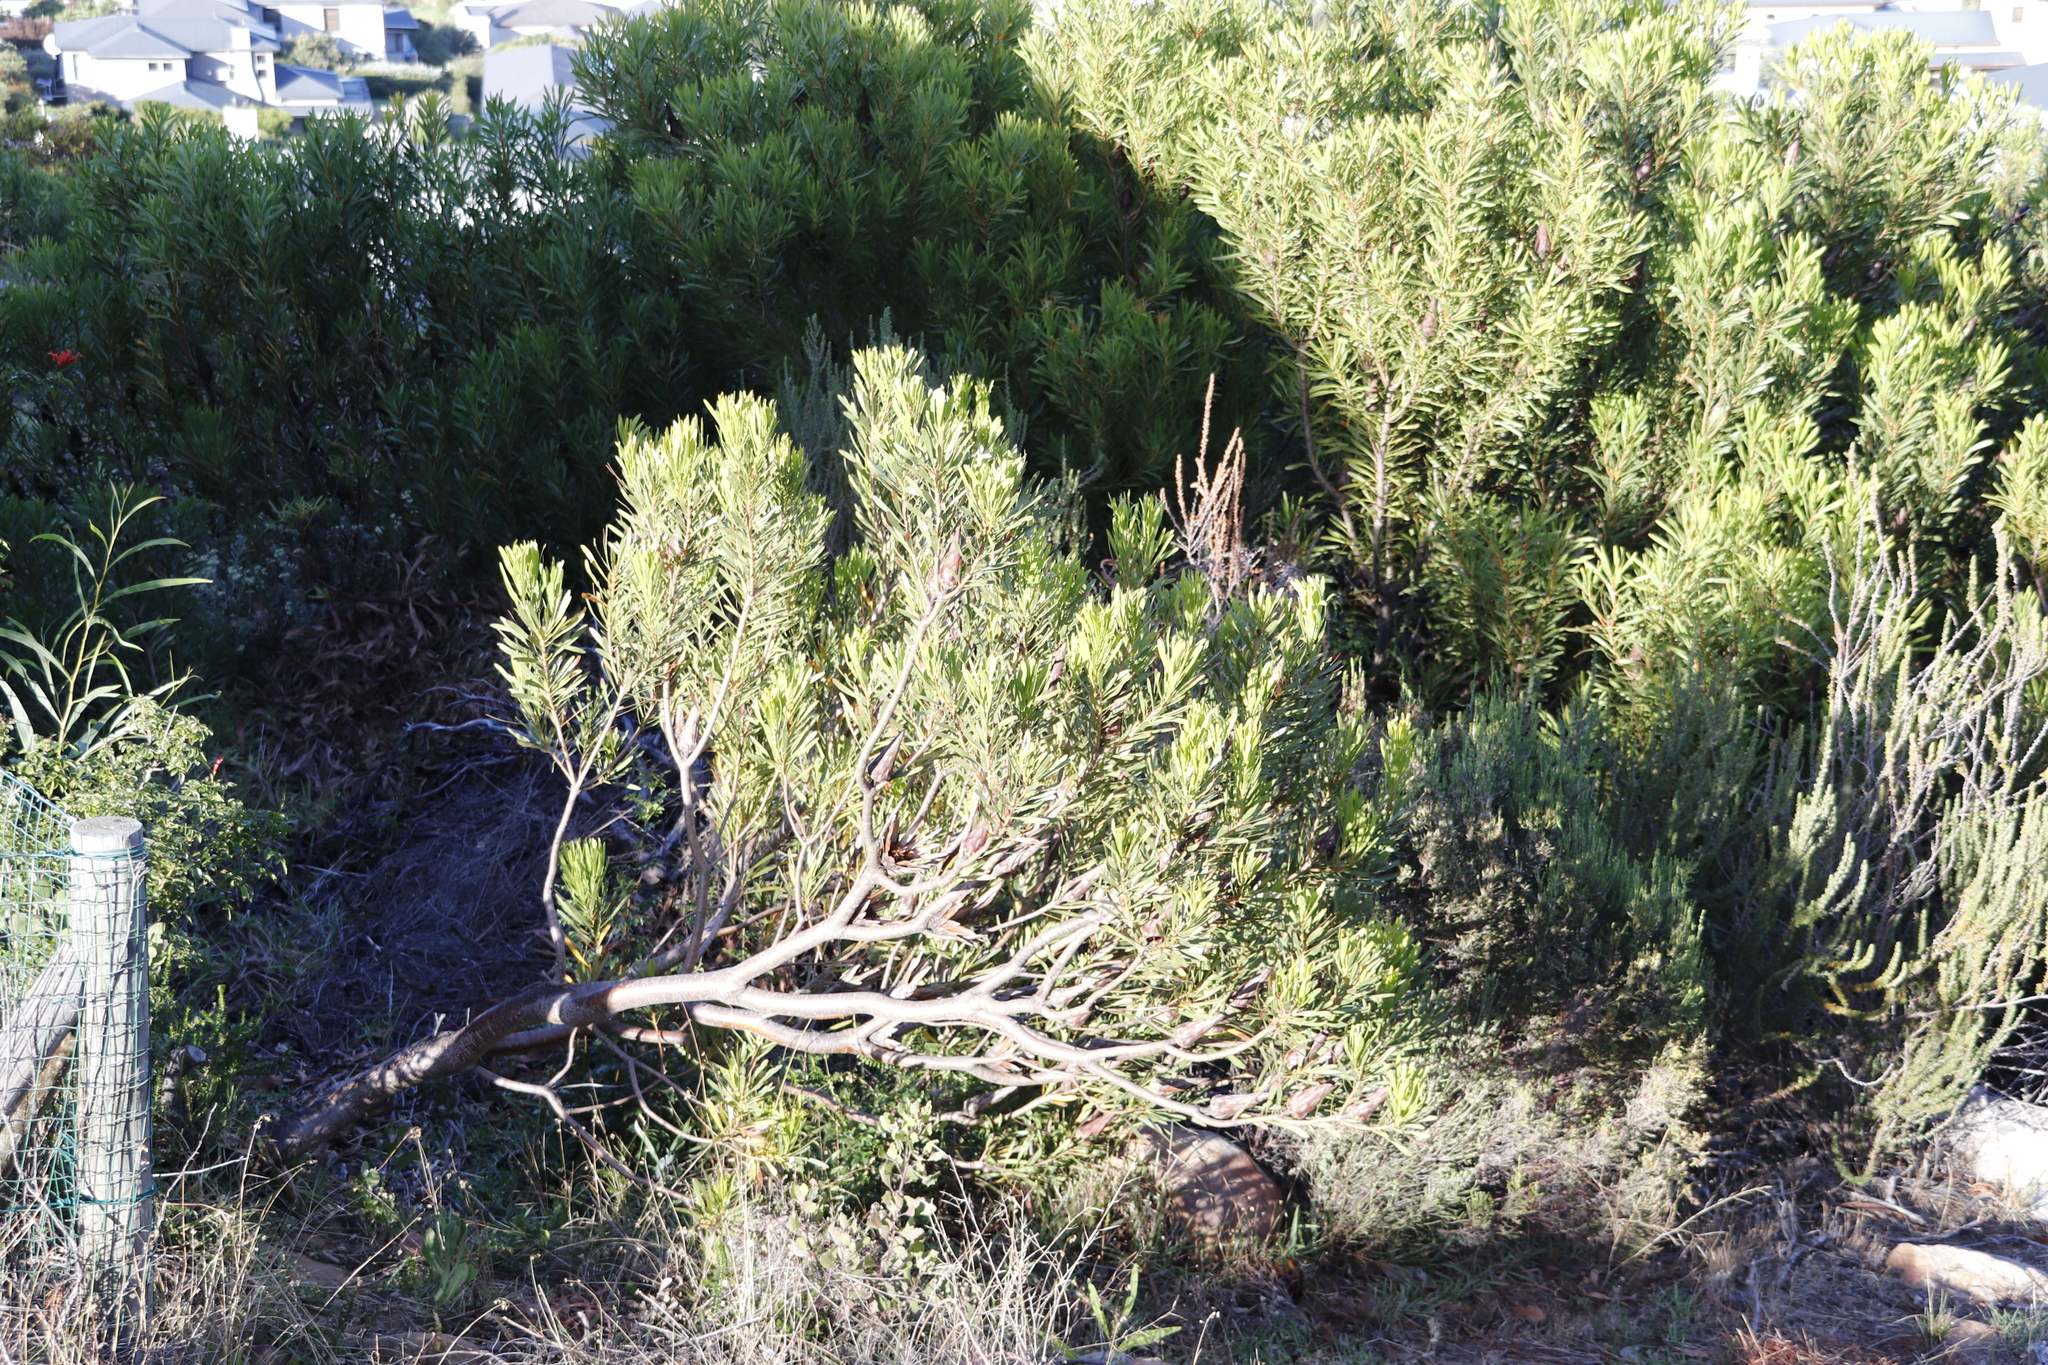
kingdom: Plantae
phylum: Tracheophyta
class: Magnoliopsida
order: Proteales
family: Proteaceae
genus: Protea
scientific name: Protea repens
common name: Sugarbush
